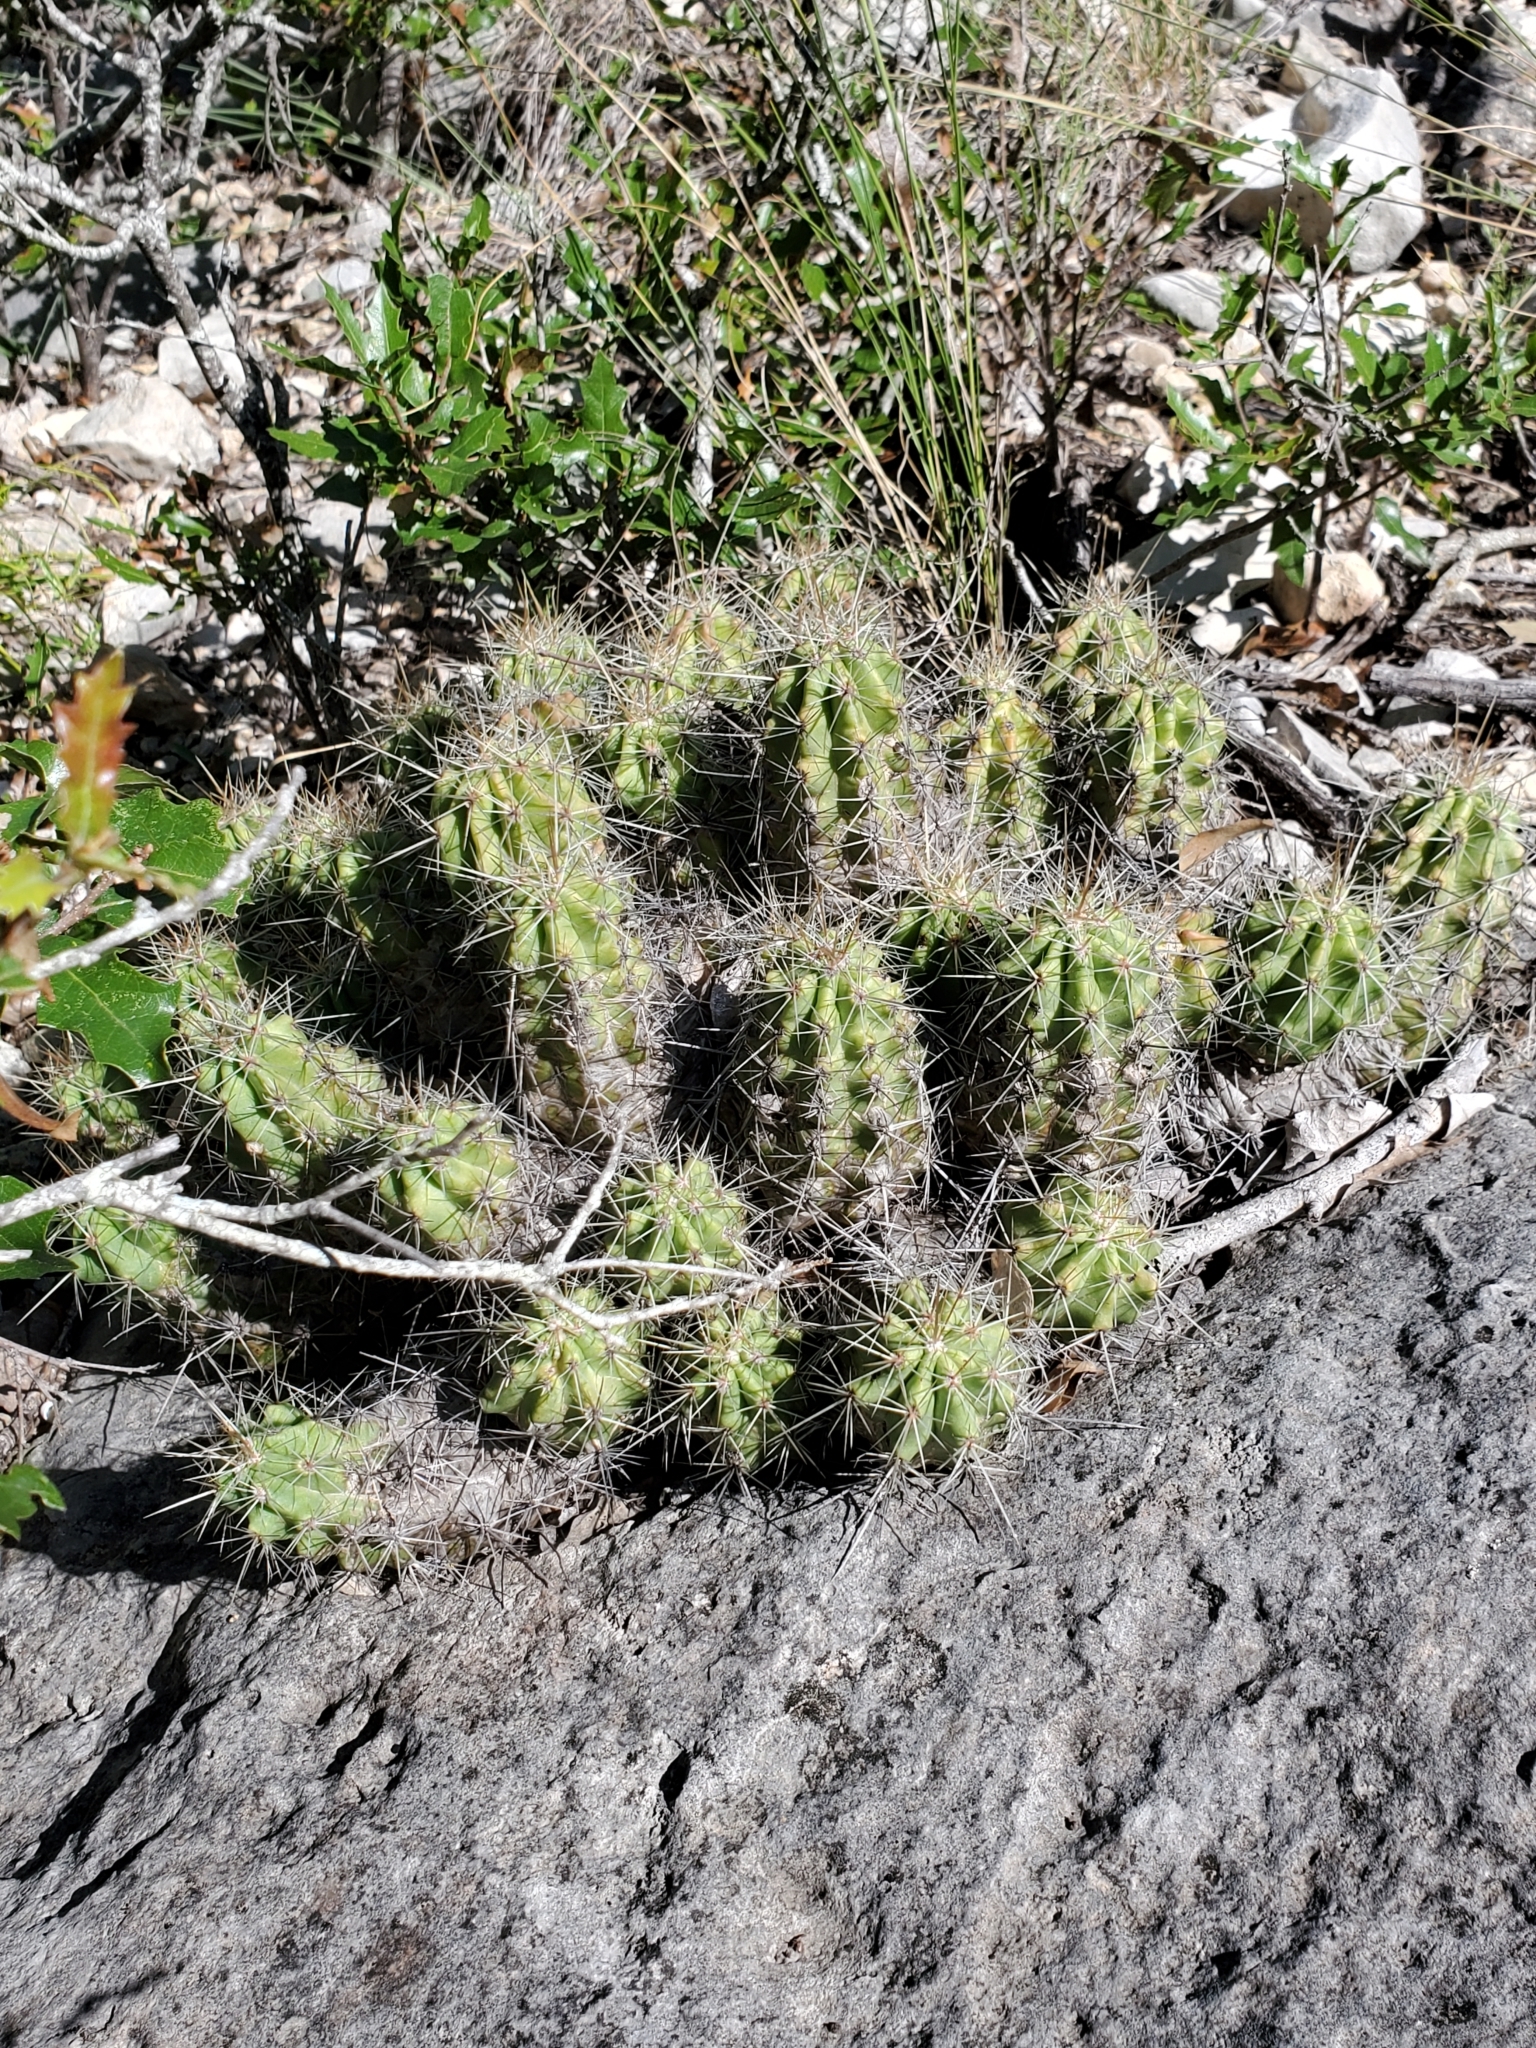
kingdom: Plantae
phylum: Tracheophyta
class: Magnoliopsida
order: Caryophyllales
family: Cactaceae
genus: Echinocereus
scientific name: Echinocereus enneacanthus
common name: Pitaya
